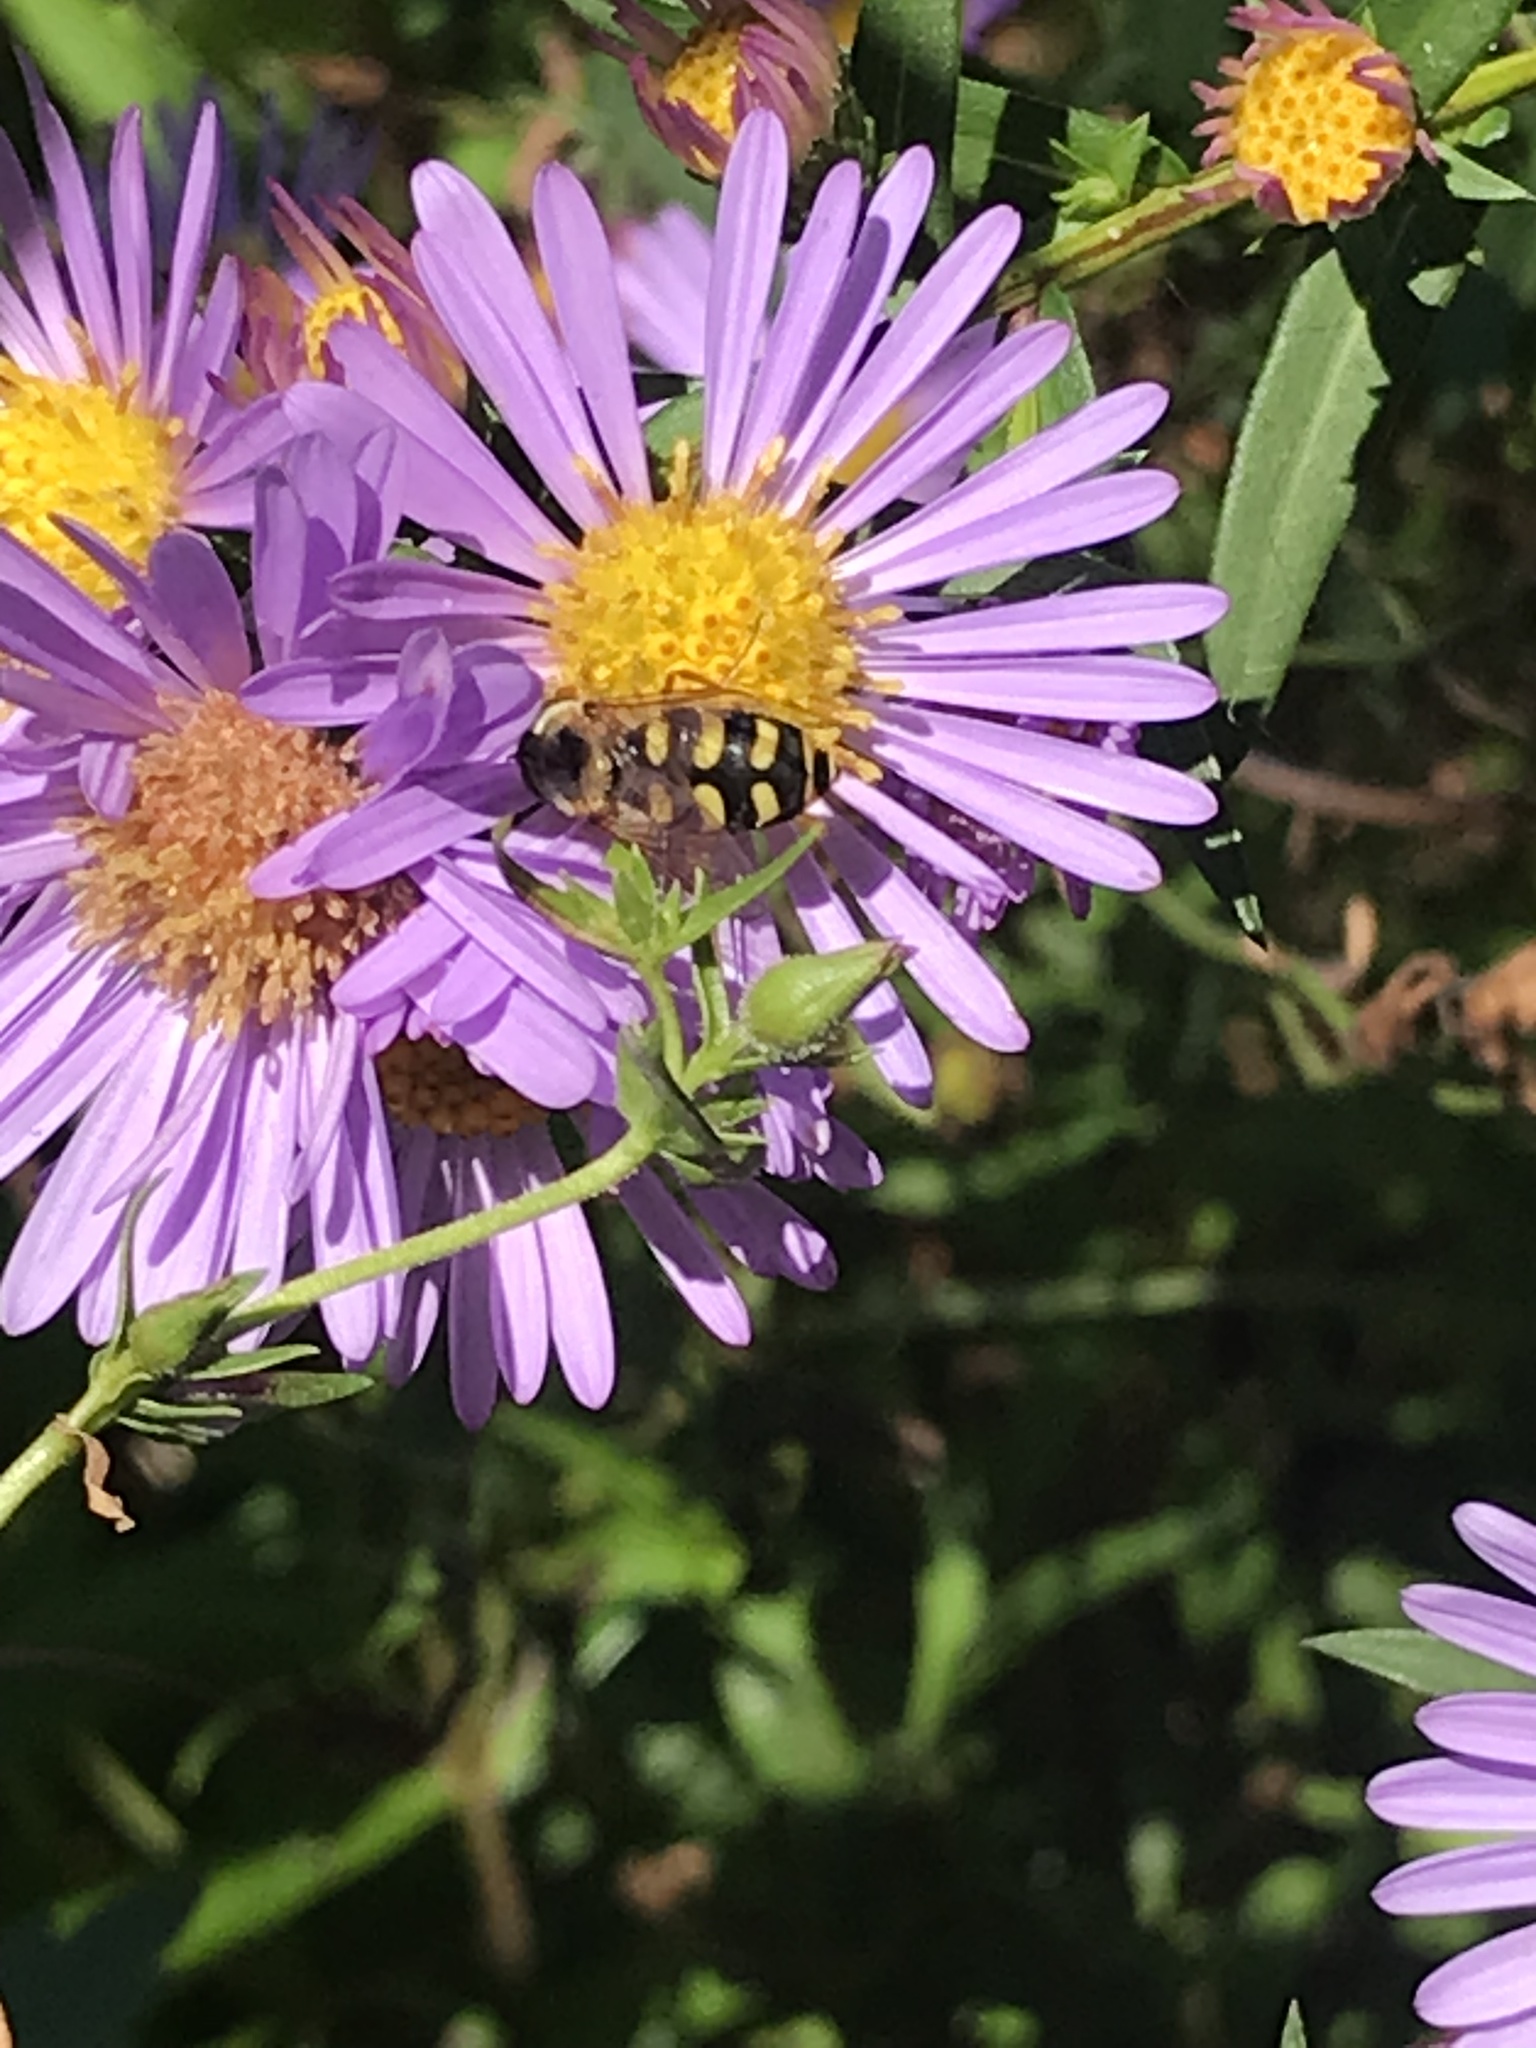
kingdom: Animalia
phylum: Arthropoda
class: Insecta
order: Diptera
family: Syrphidae
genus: Eupeodes
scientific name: Eupeodes
